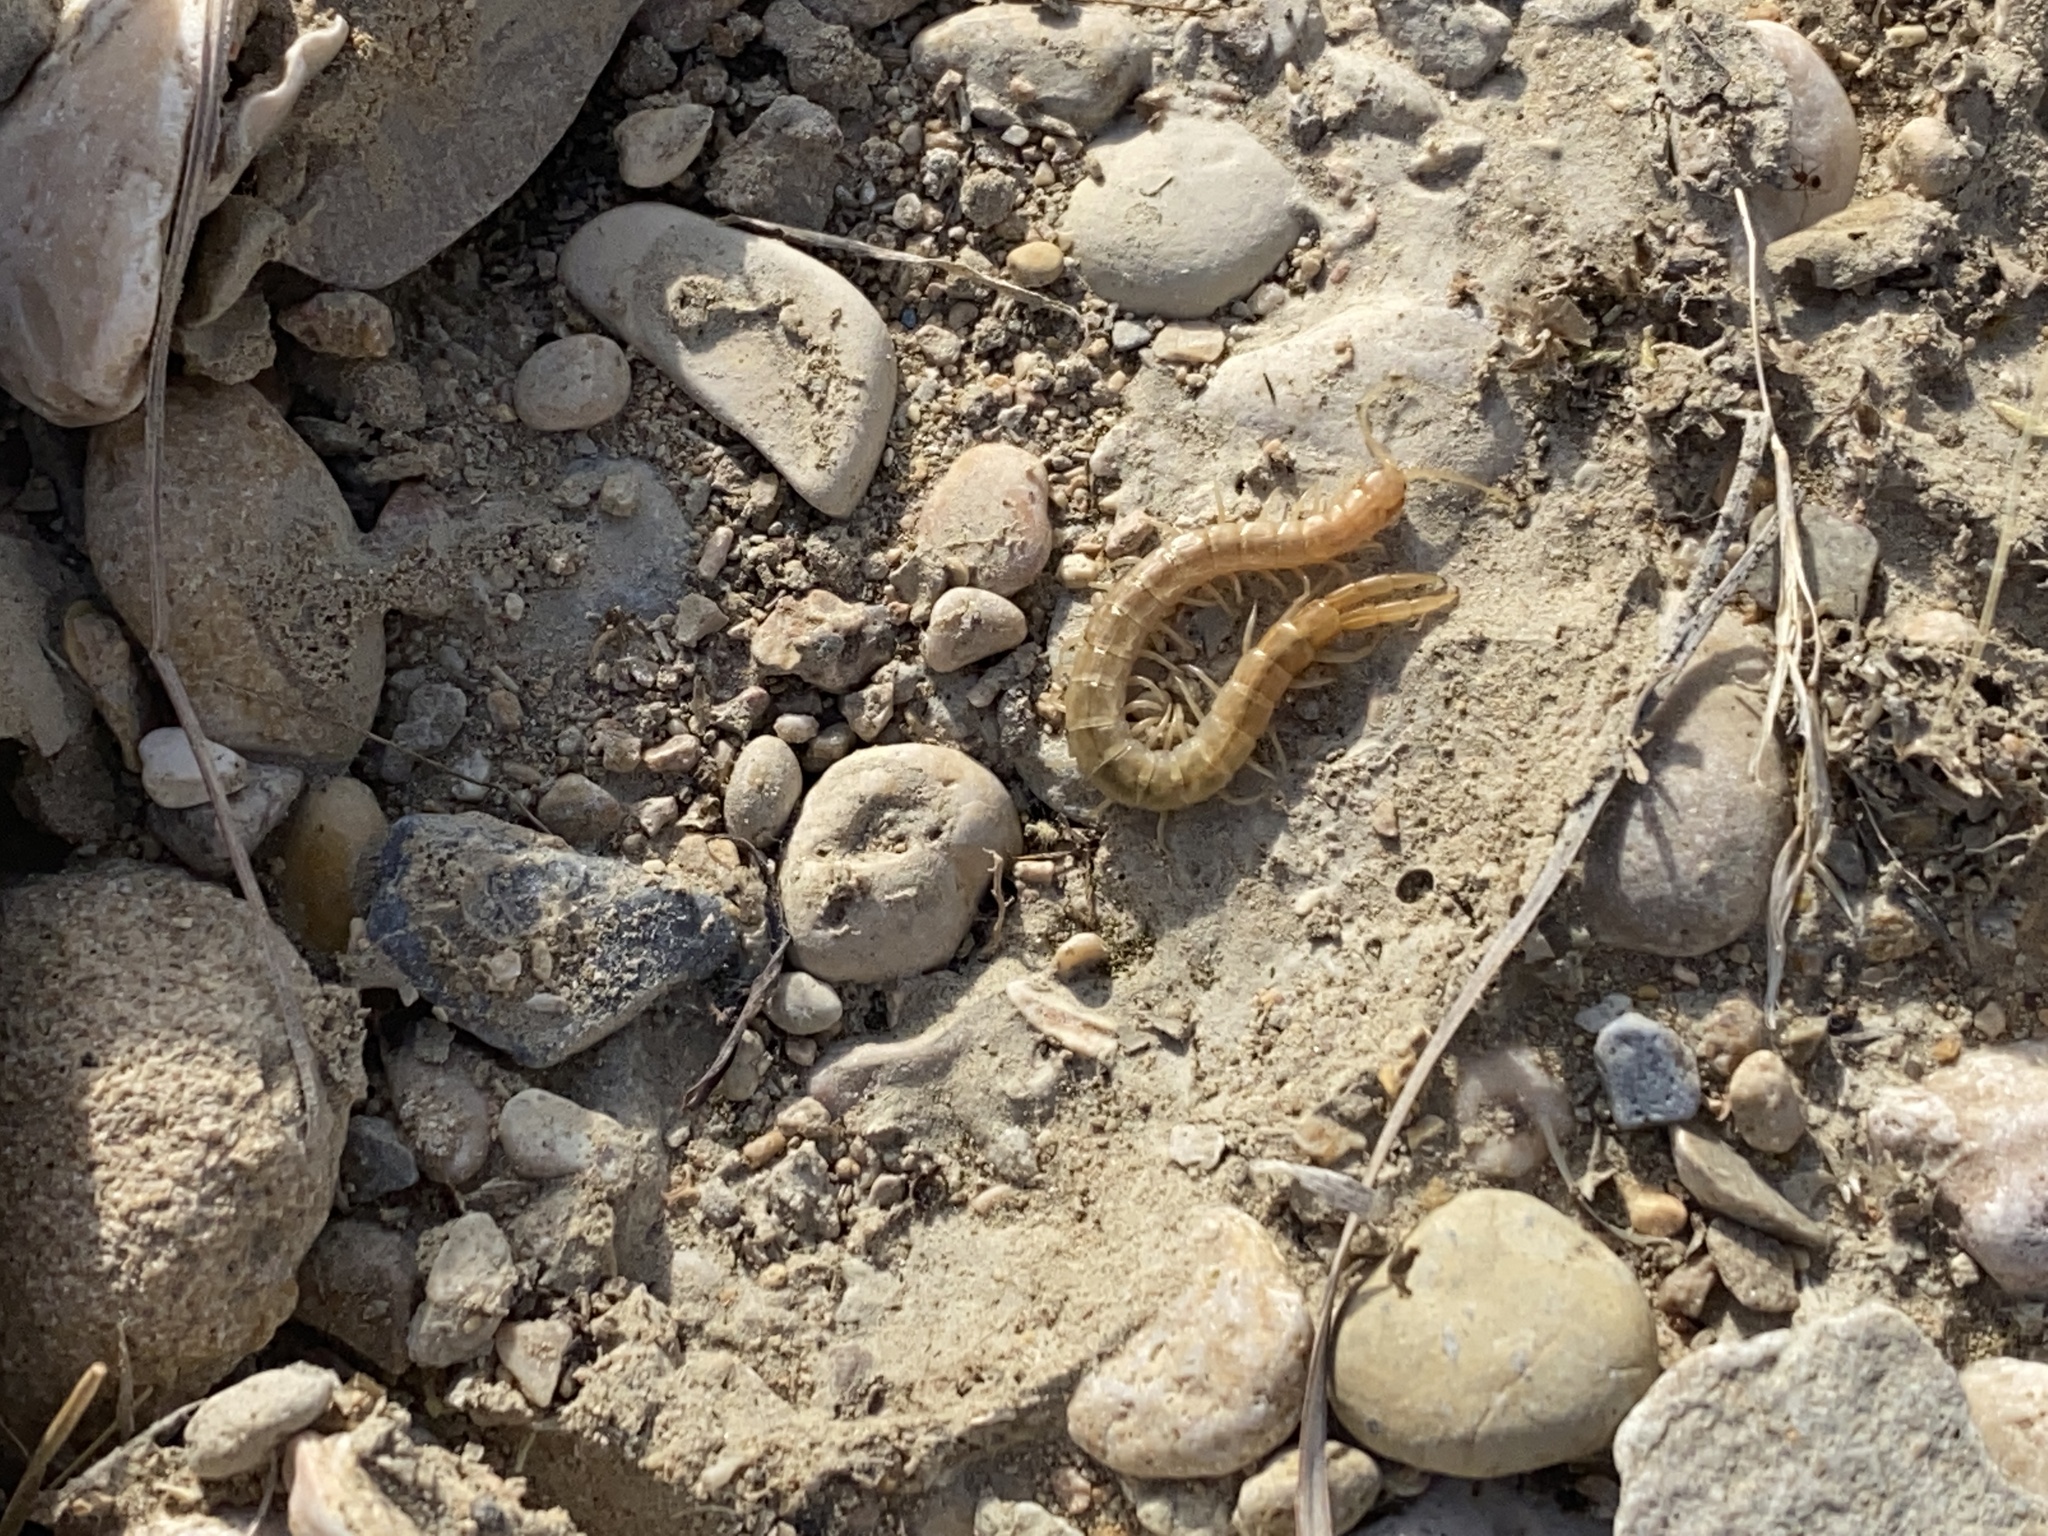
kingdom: Animalia
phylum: Arthropoda
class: Chilopoda
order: Scolopendromorpha
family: Scolopendridae
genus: Scolopendra
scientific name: Scolopendra canidens
